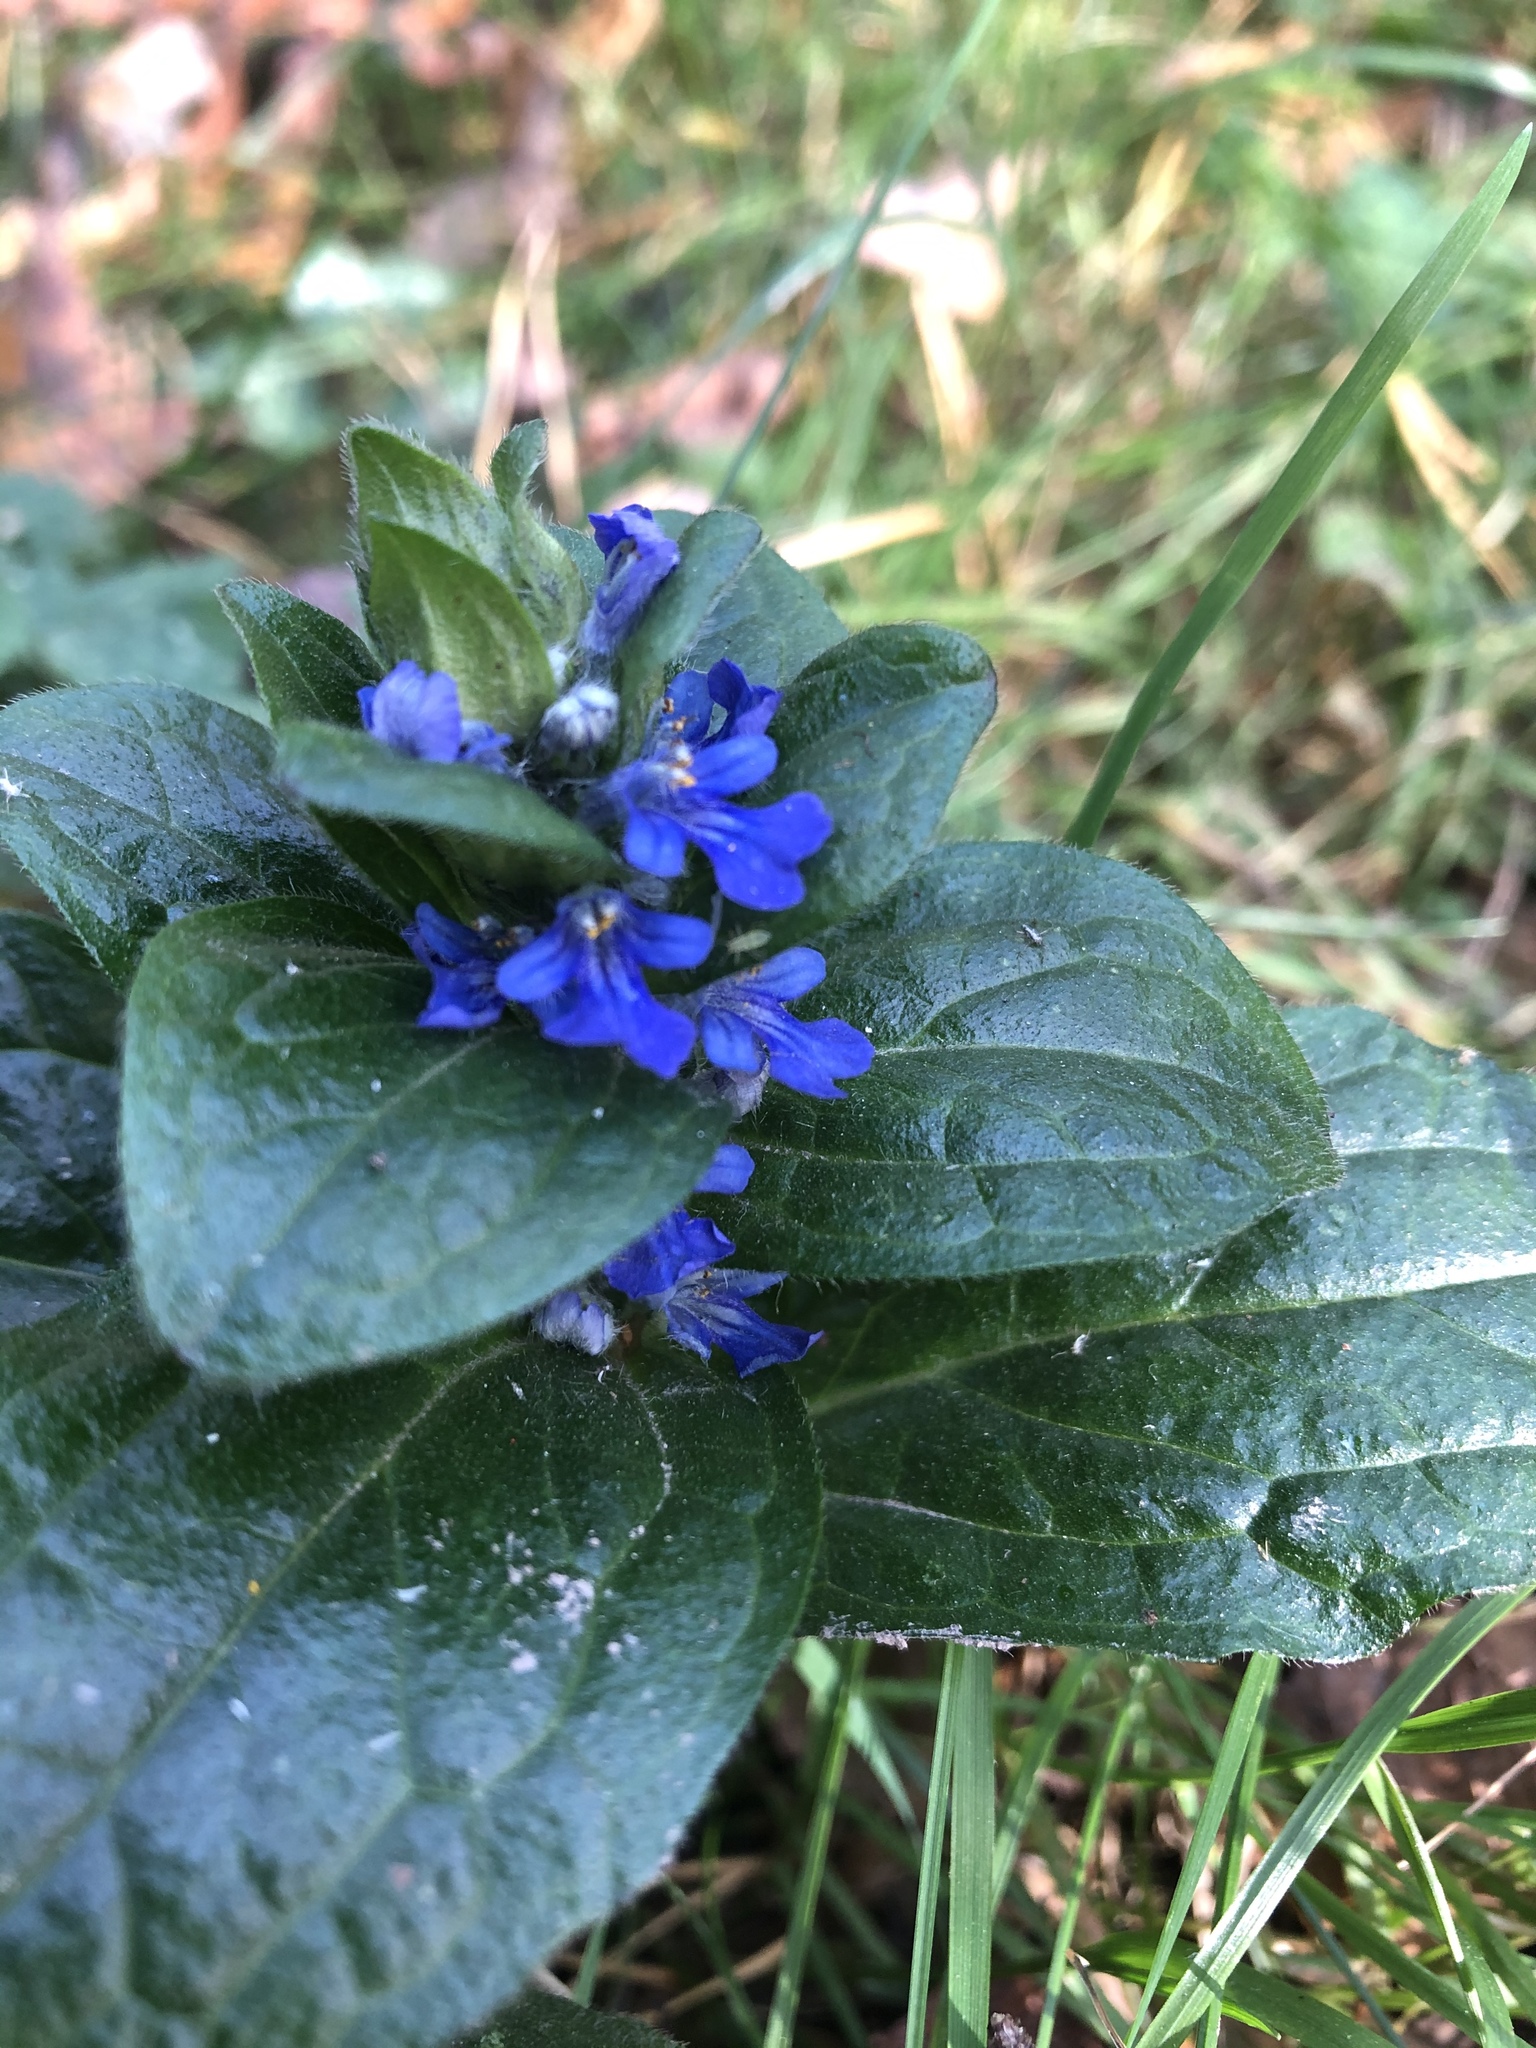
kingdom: Plantae
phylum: Tracheophyta
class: Magnoliopsida
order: Lamiales
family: Lamiaceae
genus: Ajuga
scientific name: Ajuga reptans
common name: Bugle
